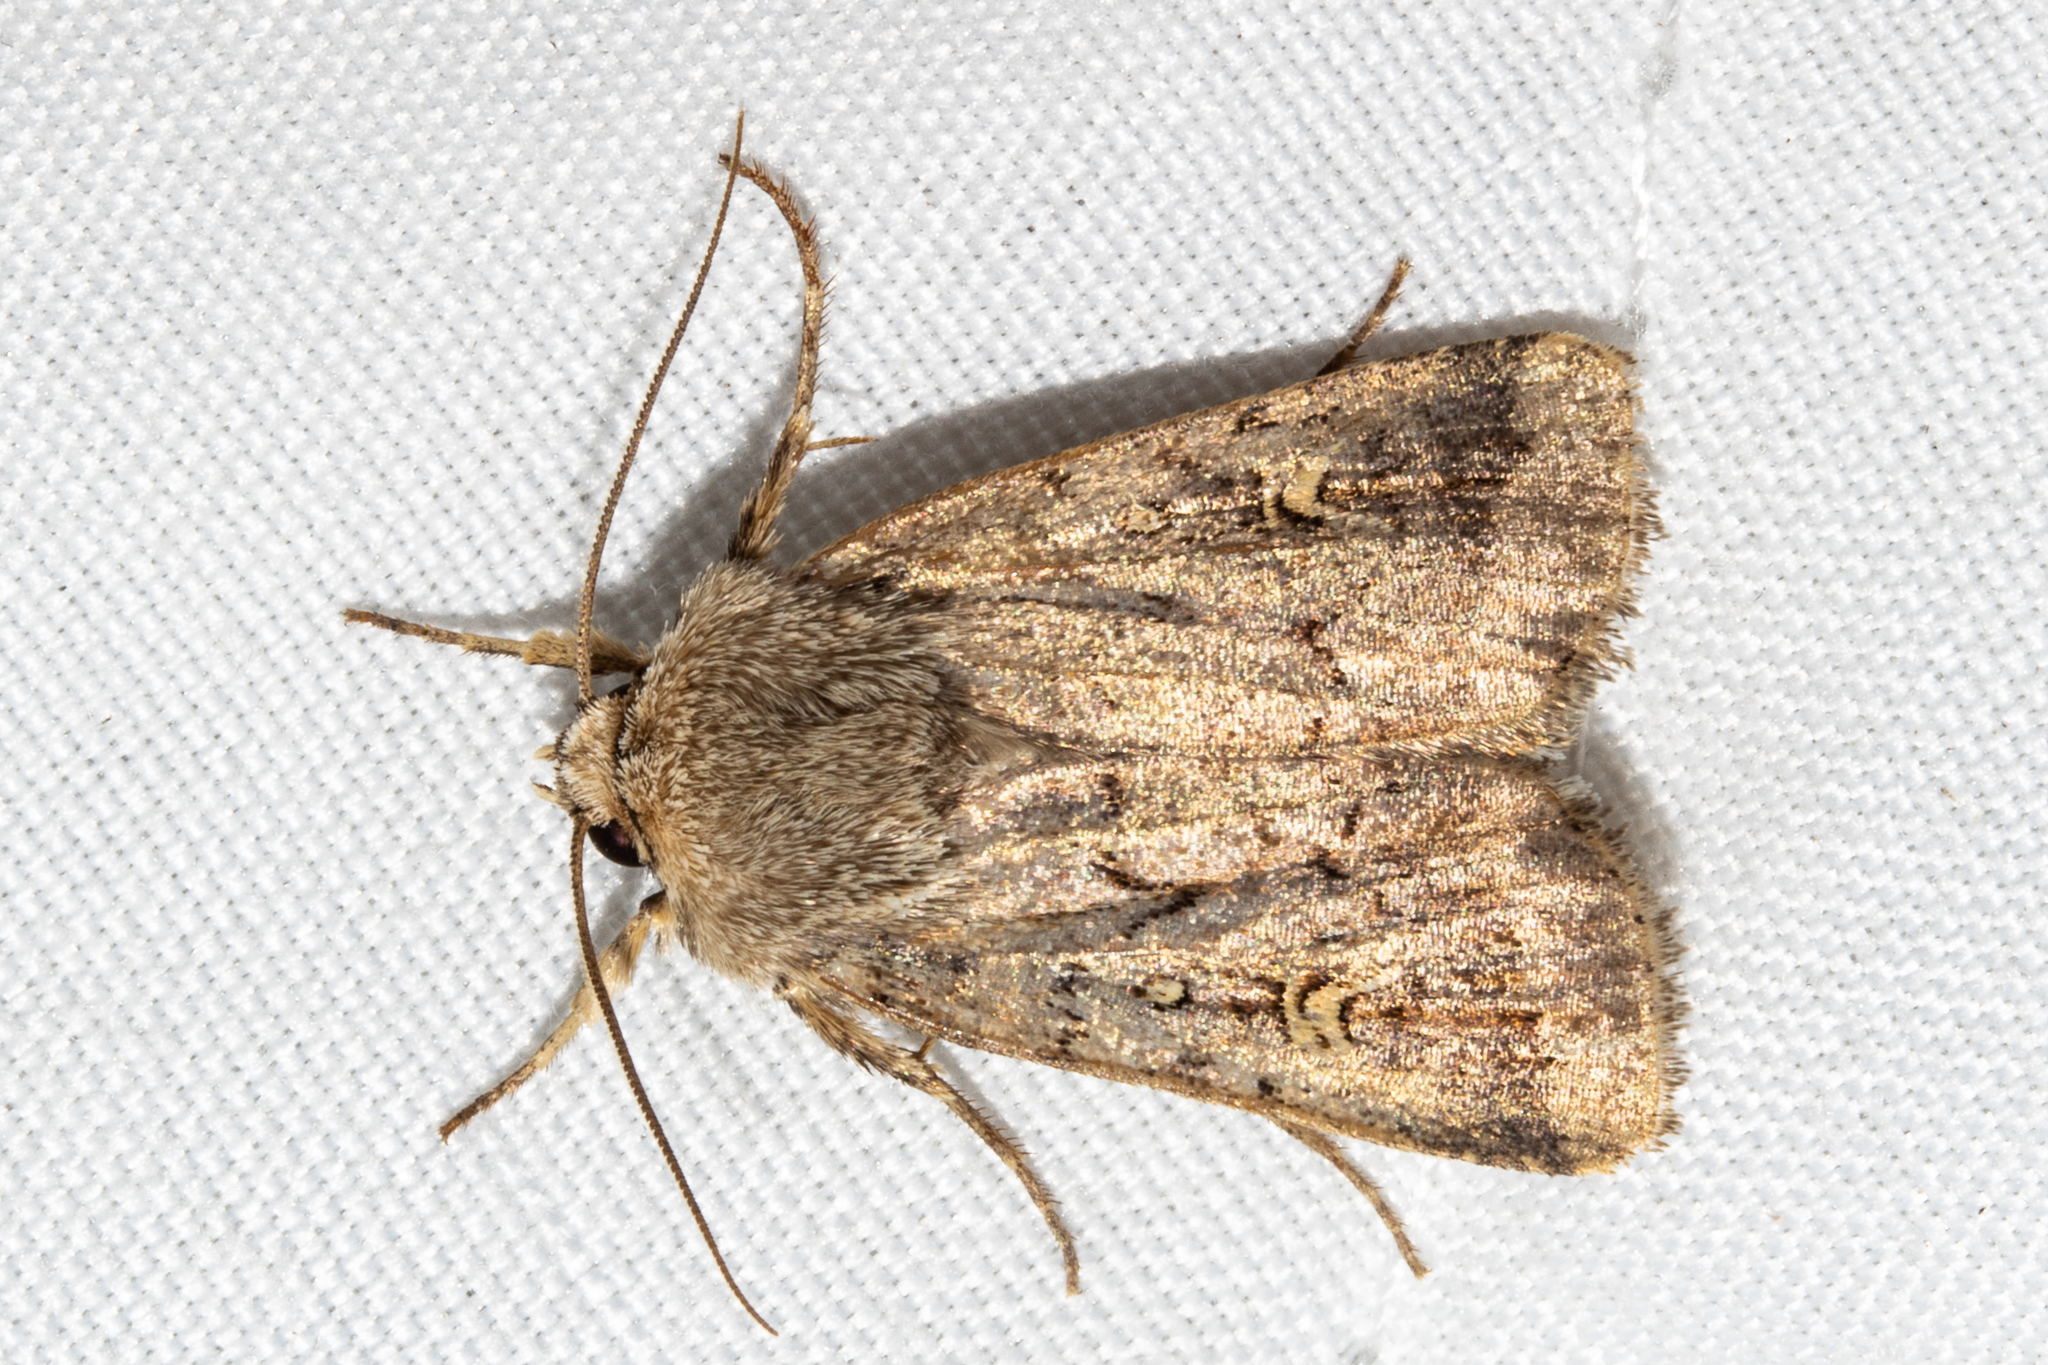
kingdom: Animalia
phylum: Arthropoda
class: Insecta
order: Lepidoptera
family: Noctuidae
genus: Proteuxoa
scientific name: Proteuxoa tetronycha
